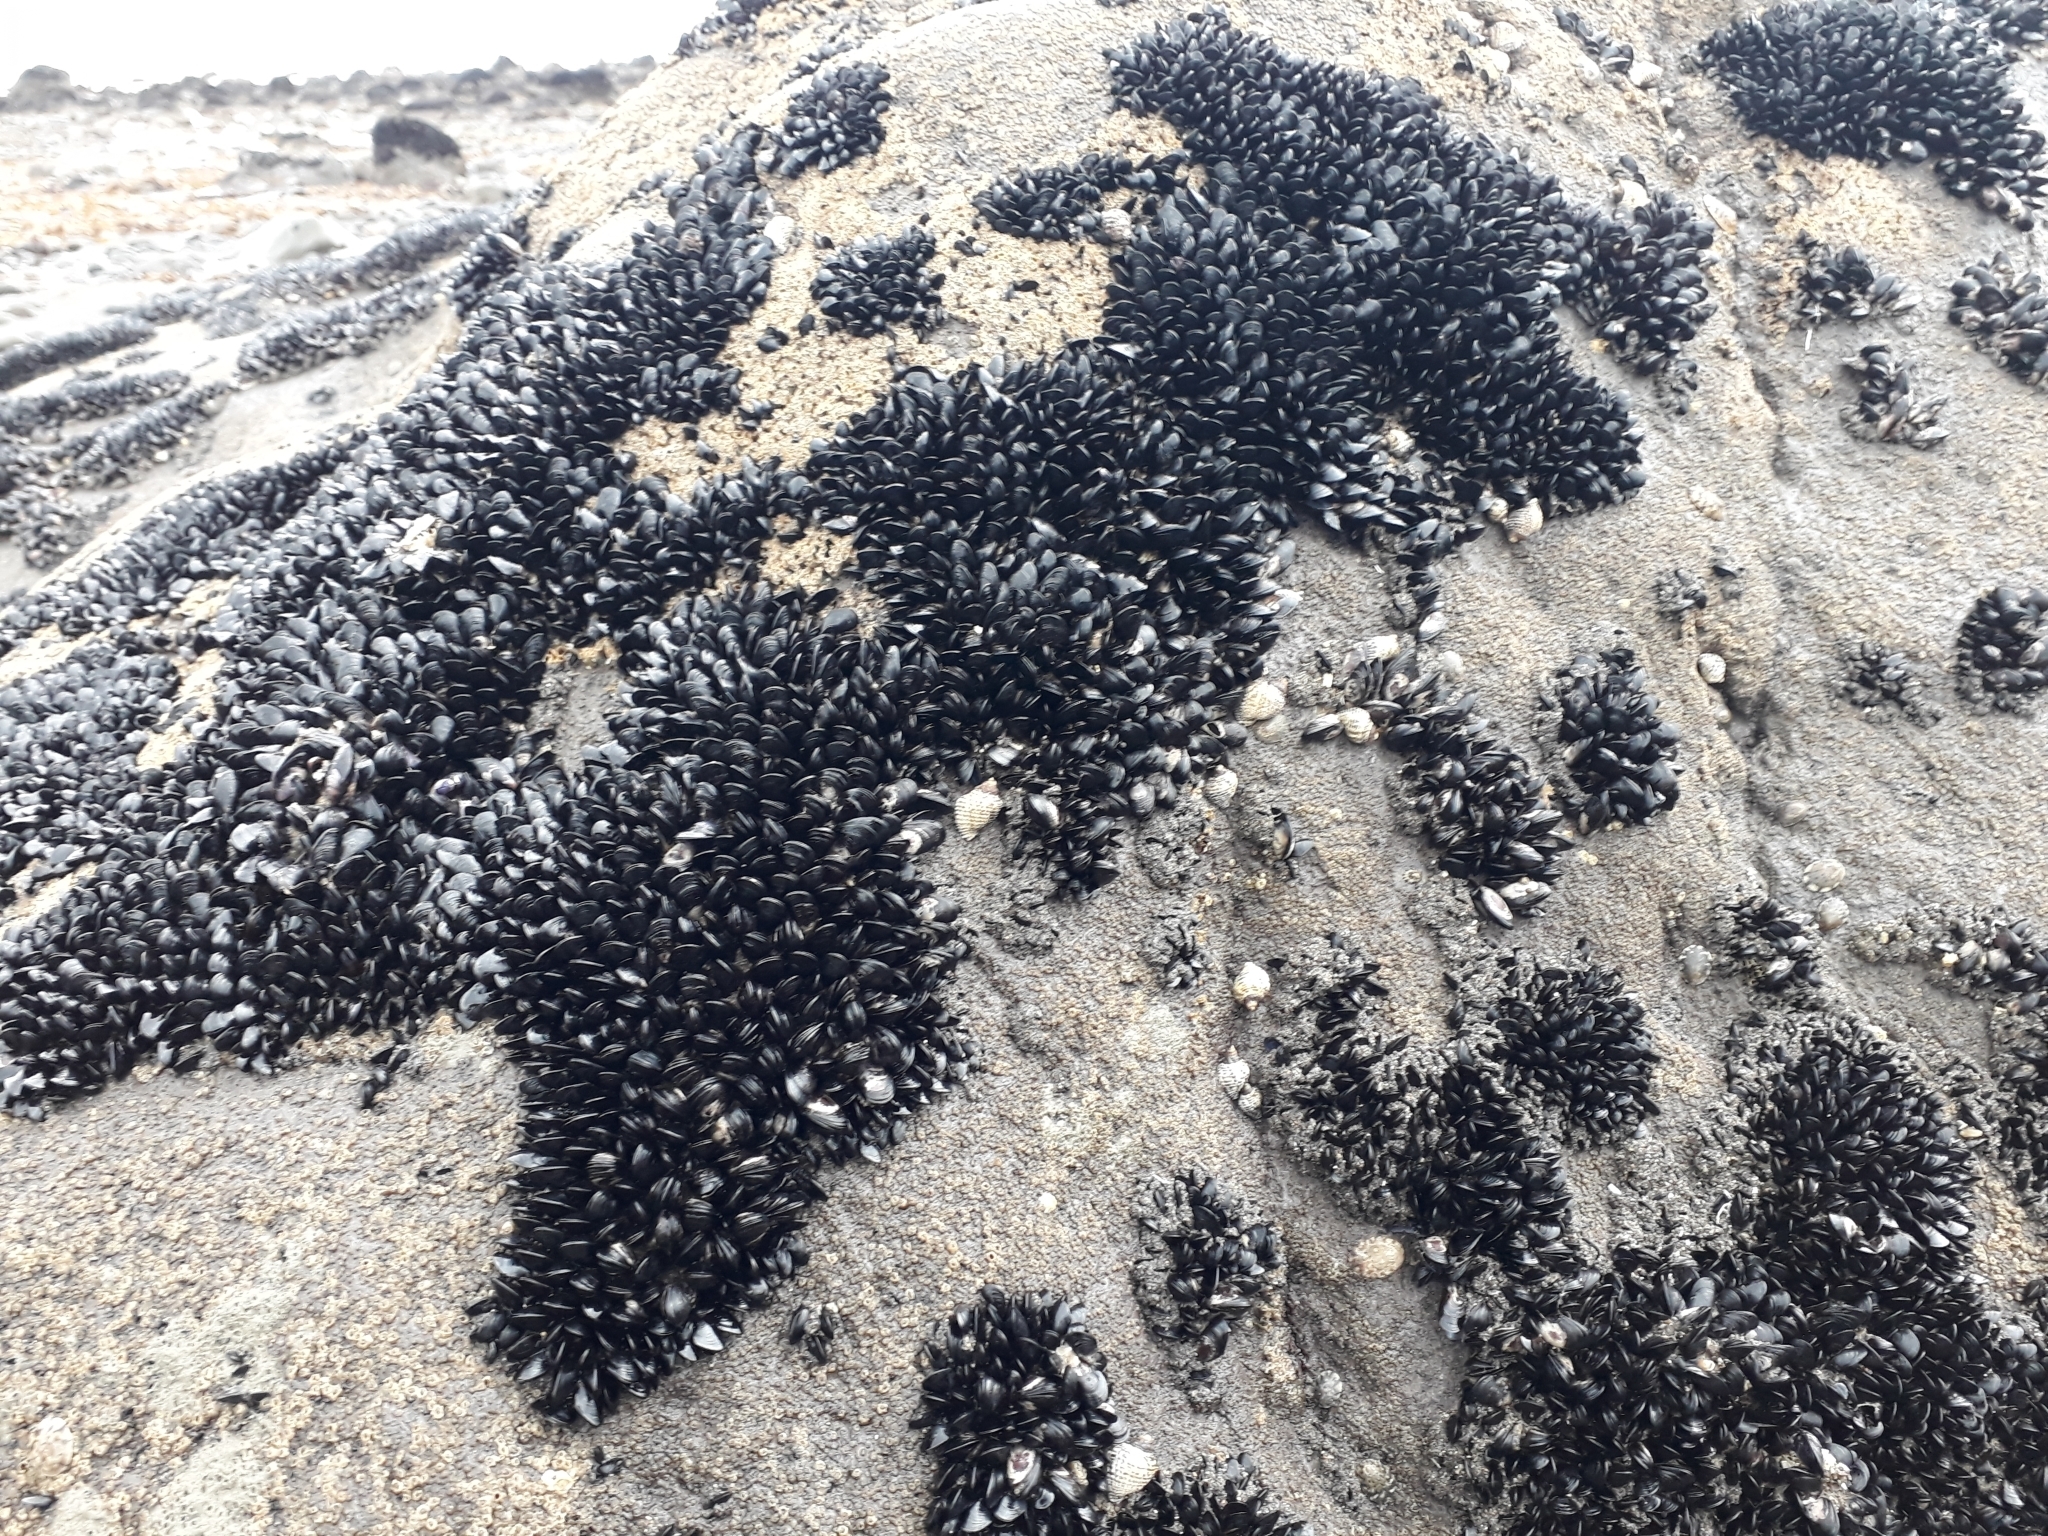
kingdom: Animalia
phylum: Mollusca
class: Bivalvia
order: Mytilida
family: Mytilidae
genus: Xenostrobus
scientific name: Xenostrobus neozelanicus
